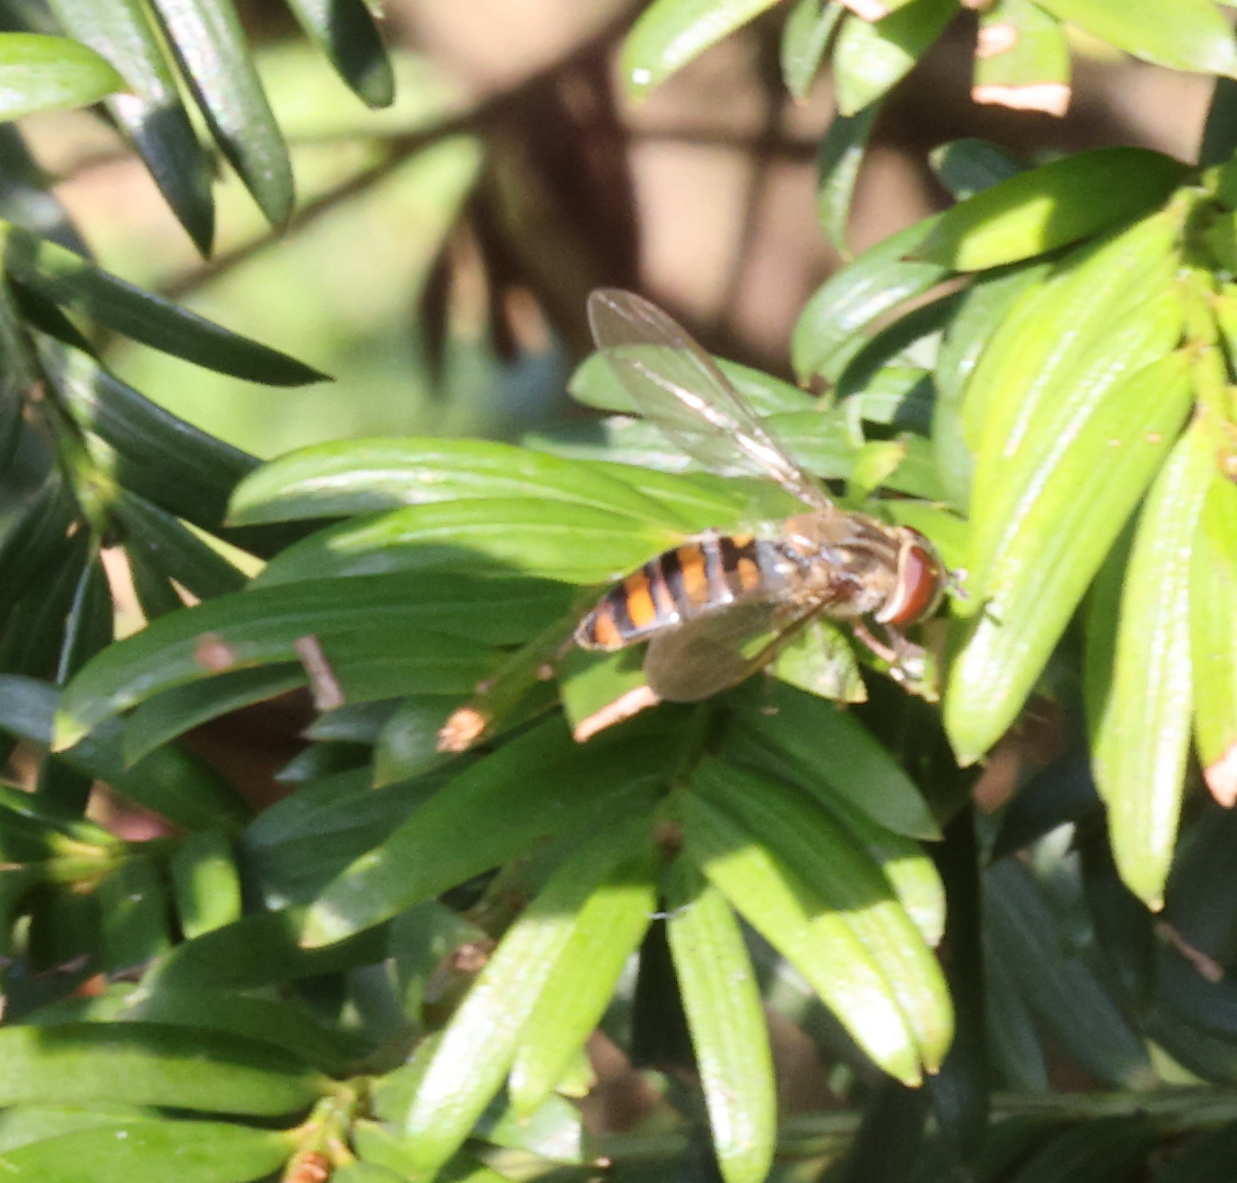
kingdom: Animalia
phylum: Arthropoda
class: Insecta
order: Diptera
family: Syrphidae
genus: Episyrphus
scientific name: Episyrphus balteatus
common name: Marmalade hoverfly
